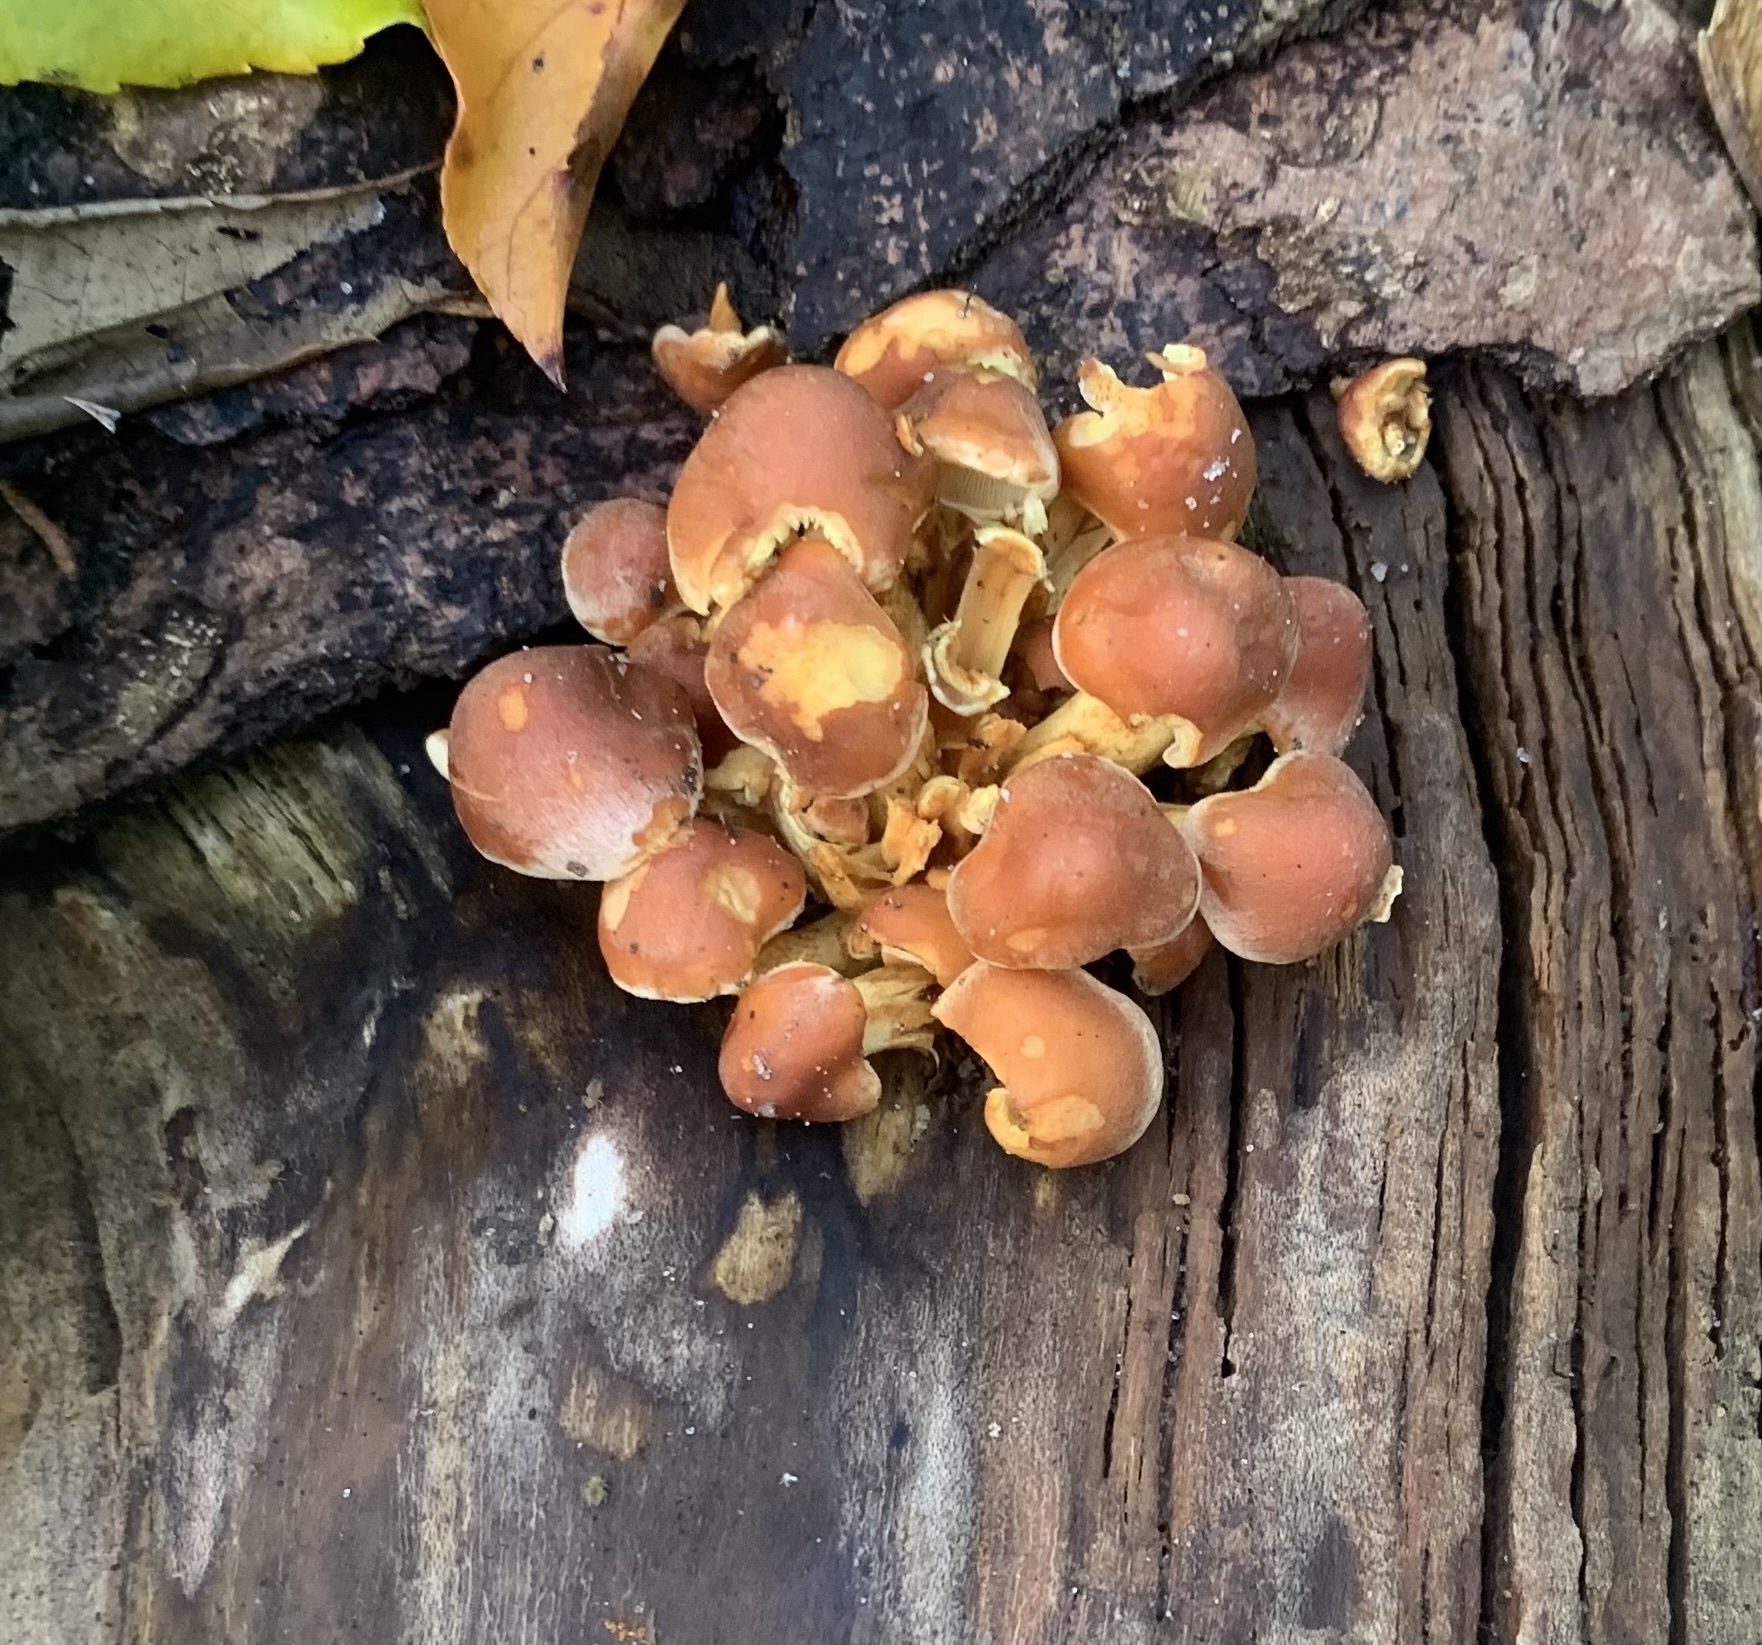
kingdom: Fungi
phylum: Basidiomycota
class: Agaricomycetes
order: Agaricales
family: Strophariaceae
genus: Hypholoma
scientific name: Hypholoma lateritium
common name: Brick caps
